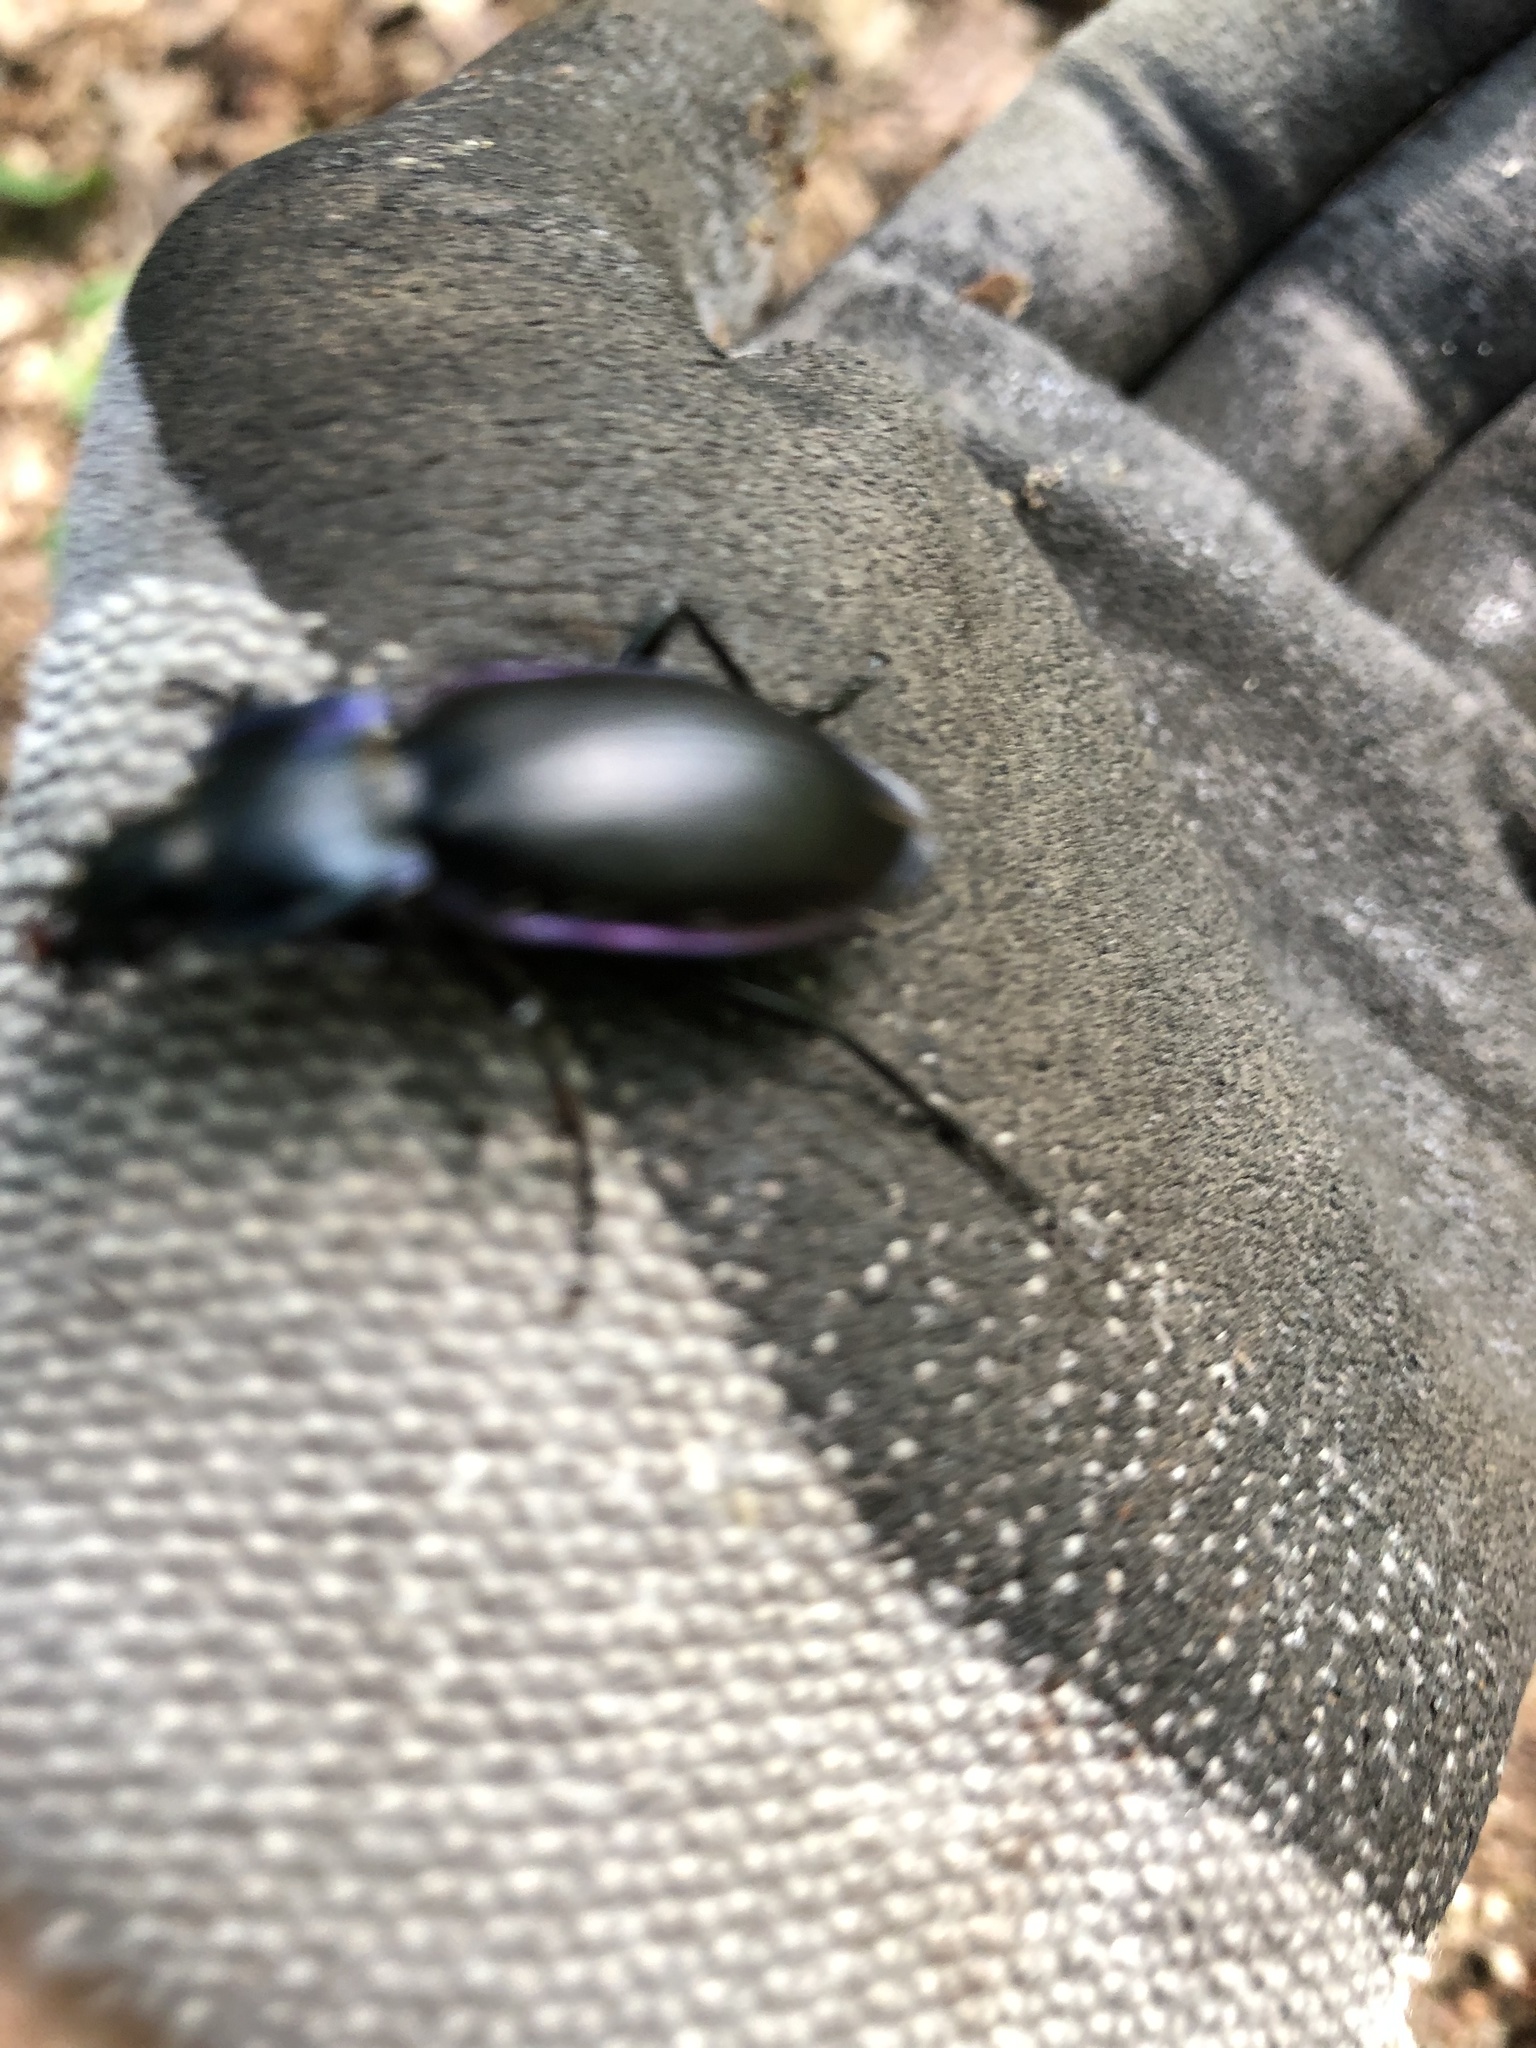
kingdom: Animalia
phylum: Arthropoda
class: Insecta
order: Coleoptera
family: Carabidae
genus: Carabus
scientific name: Carabus violaceus
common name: Violet ground beetle
